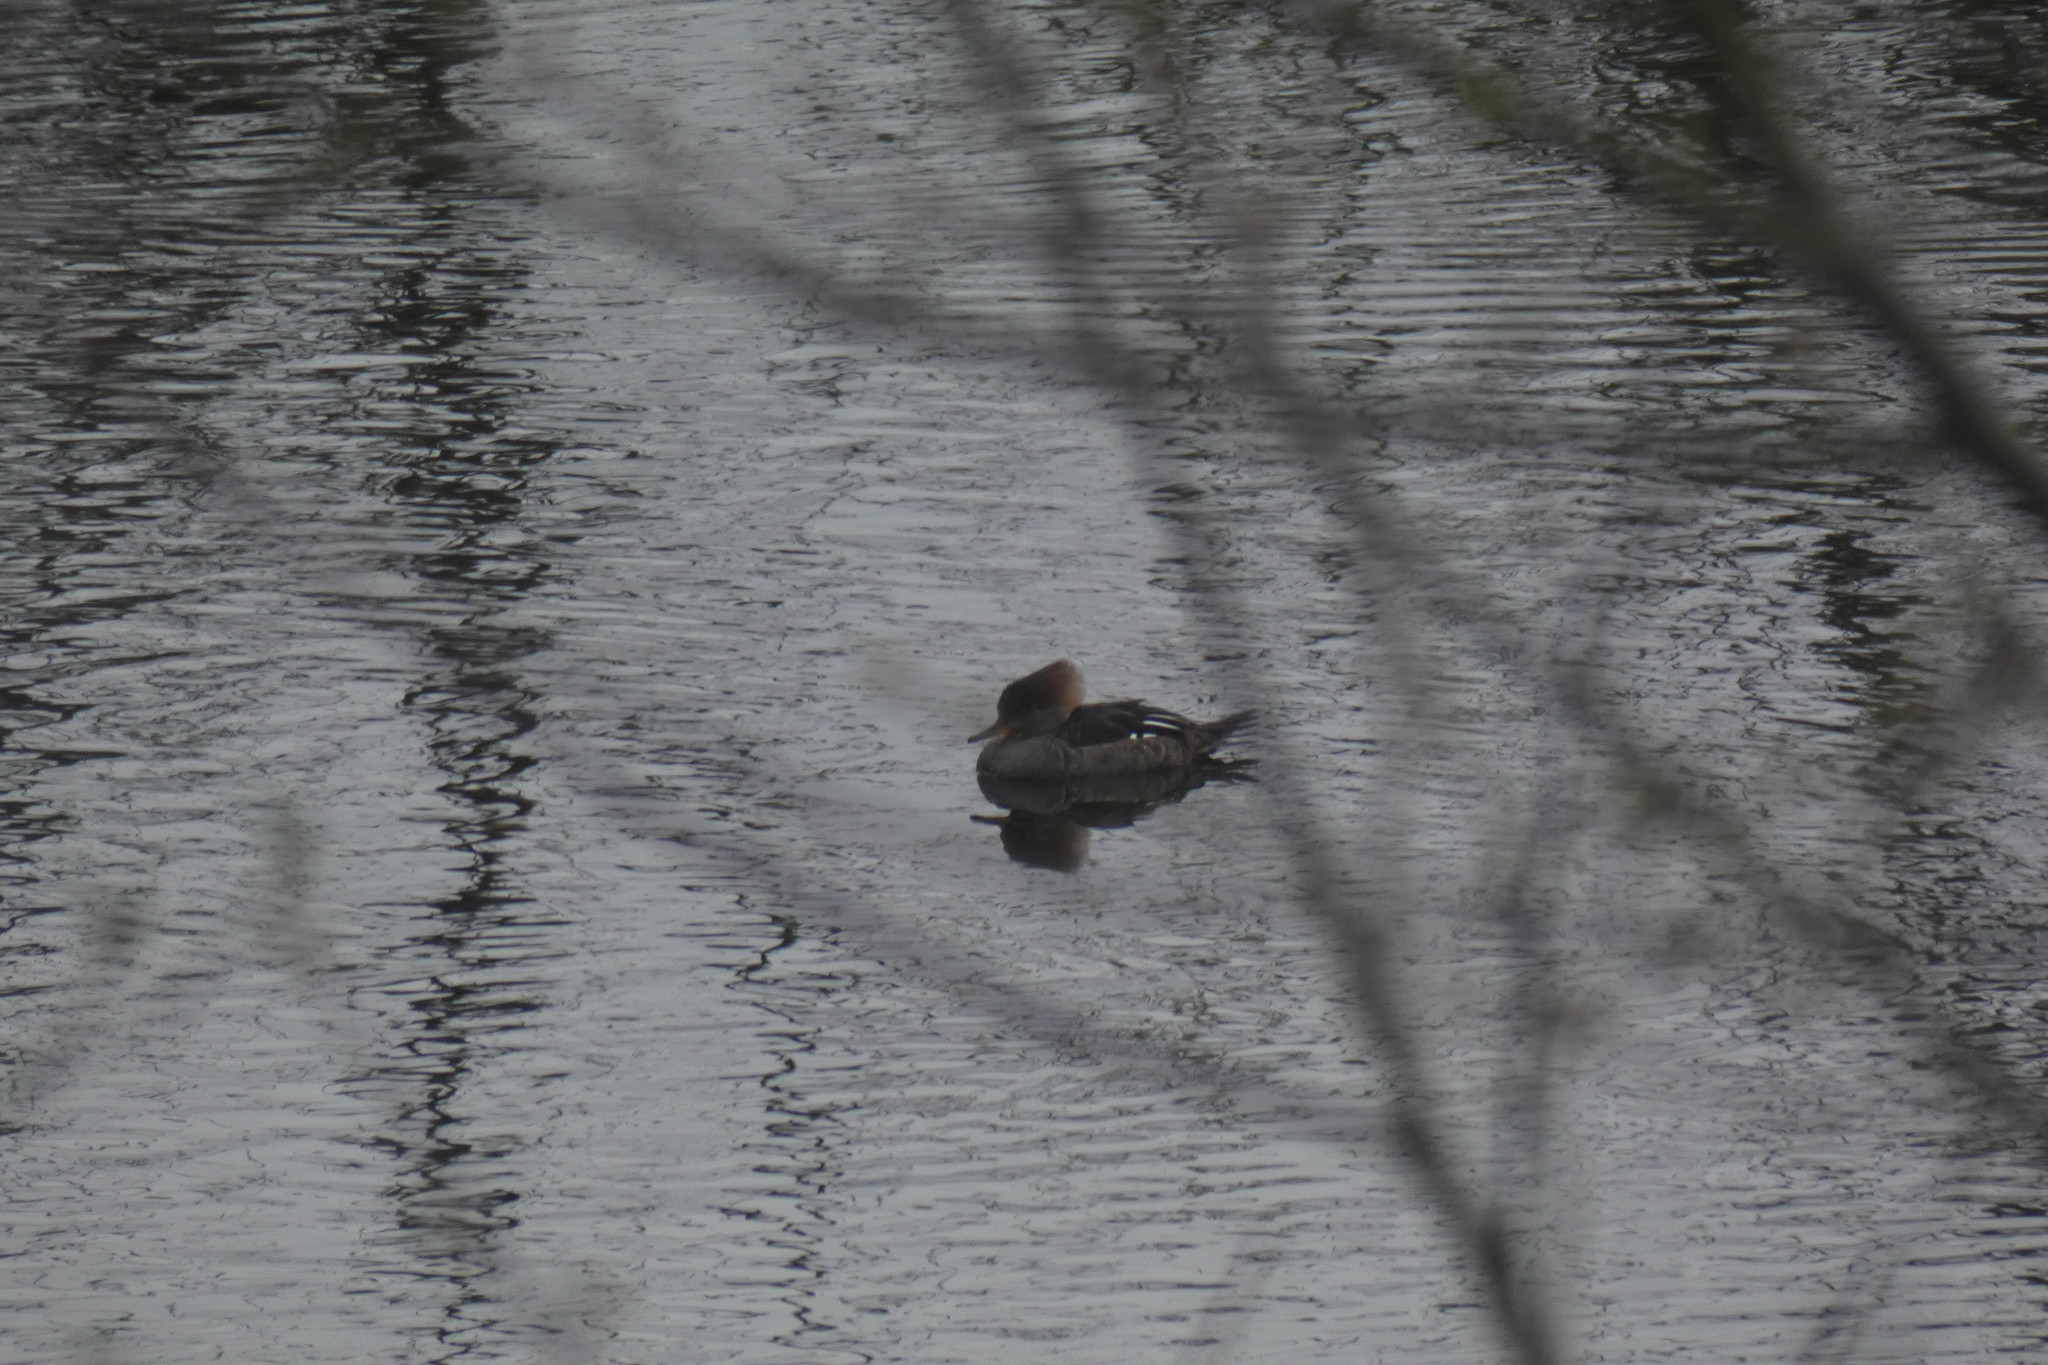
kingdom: Animalia
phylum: Chordata
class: Aves
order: Anseriformes
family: Anatidae
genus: Lophodytes
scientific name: Lophodytes cucullatus
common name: Hooded merganser
